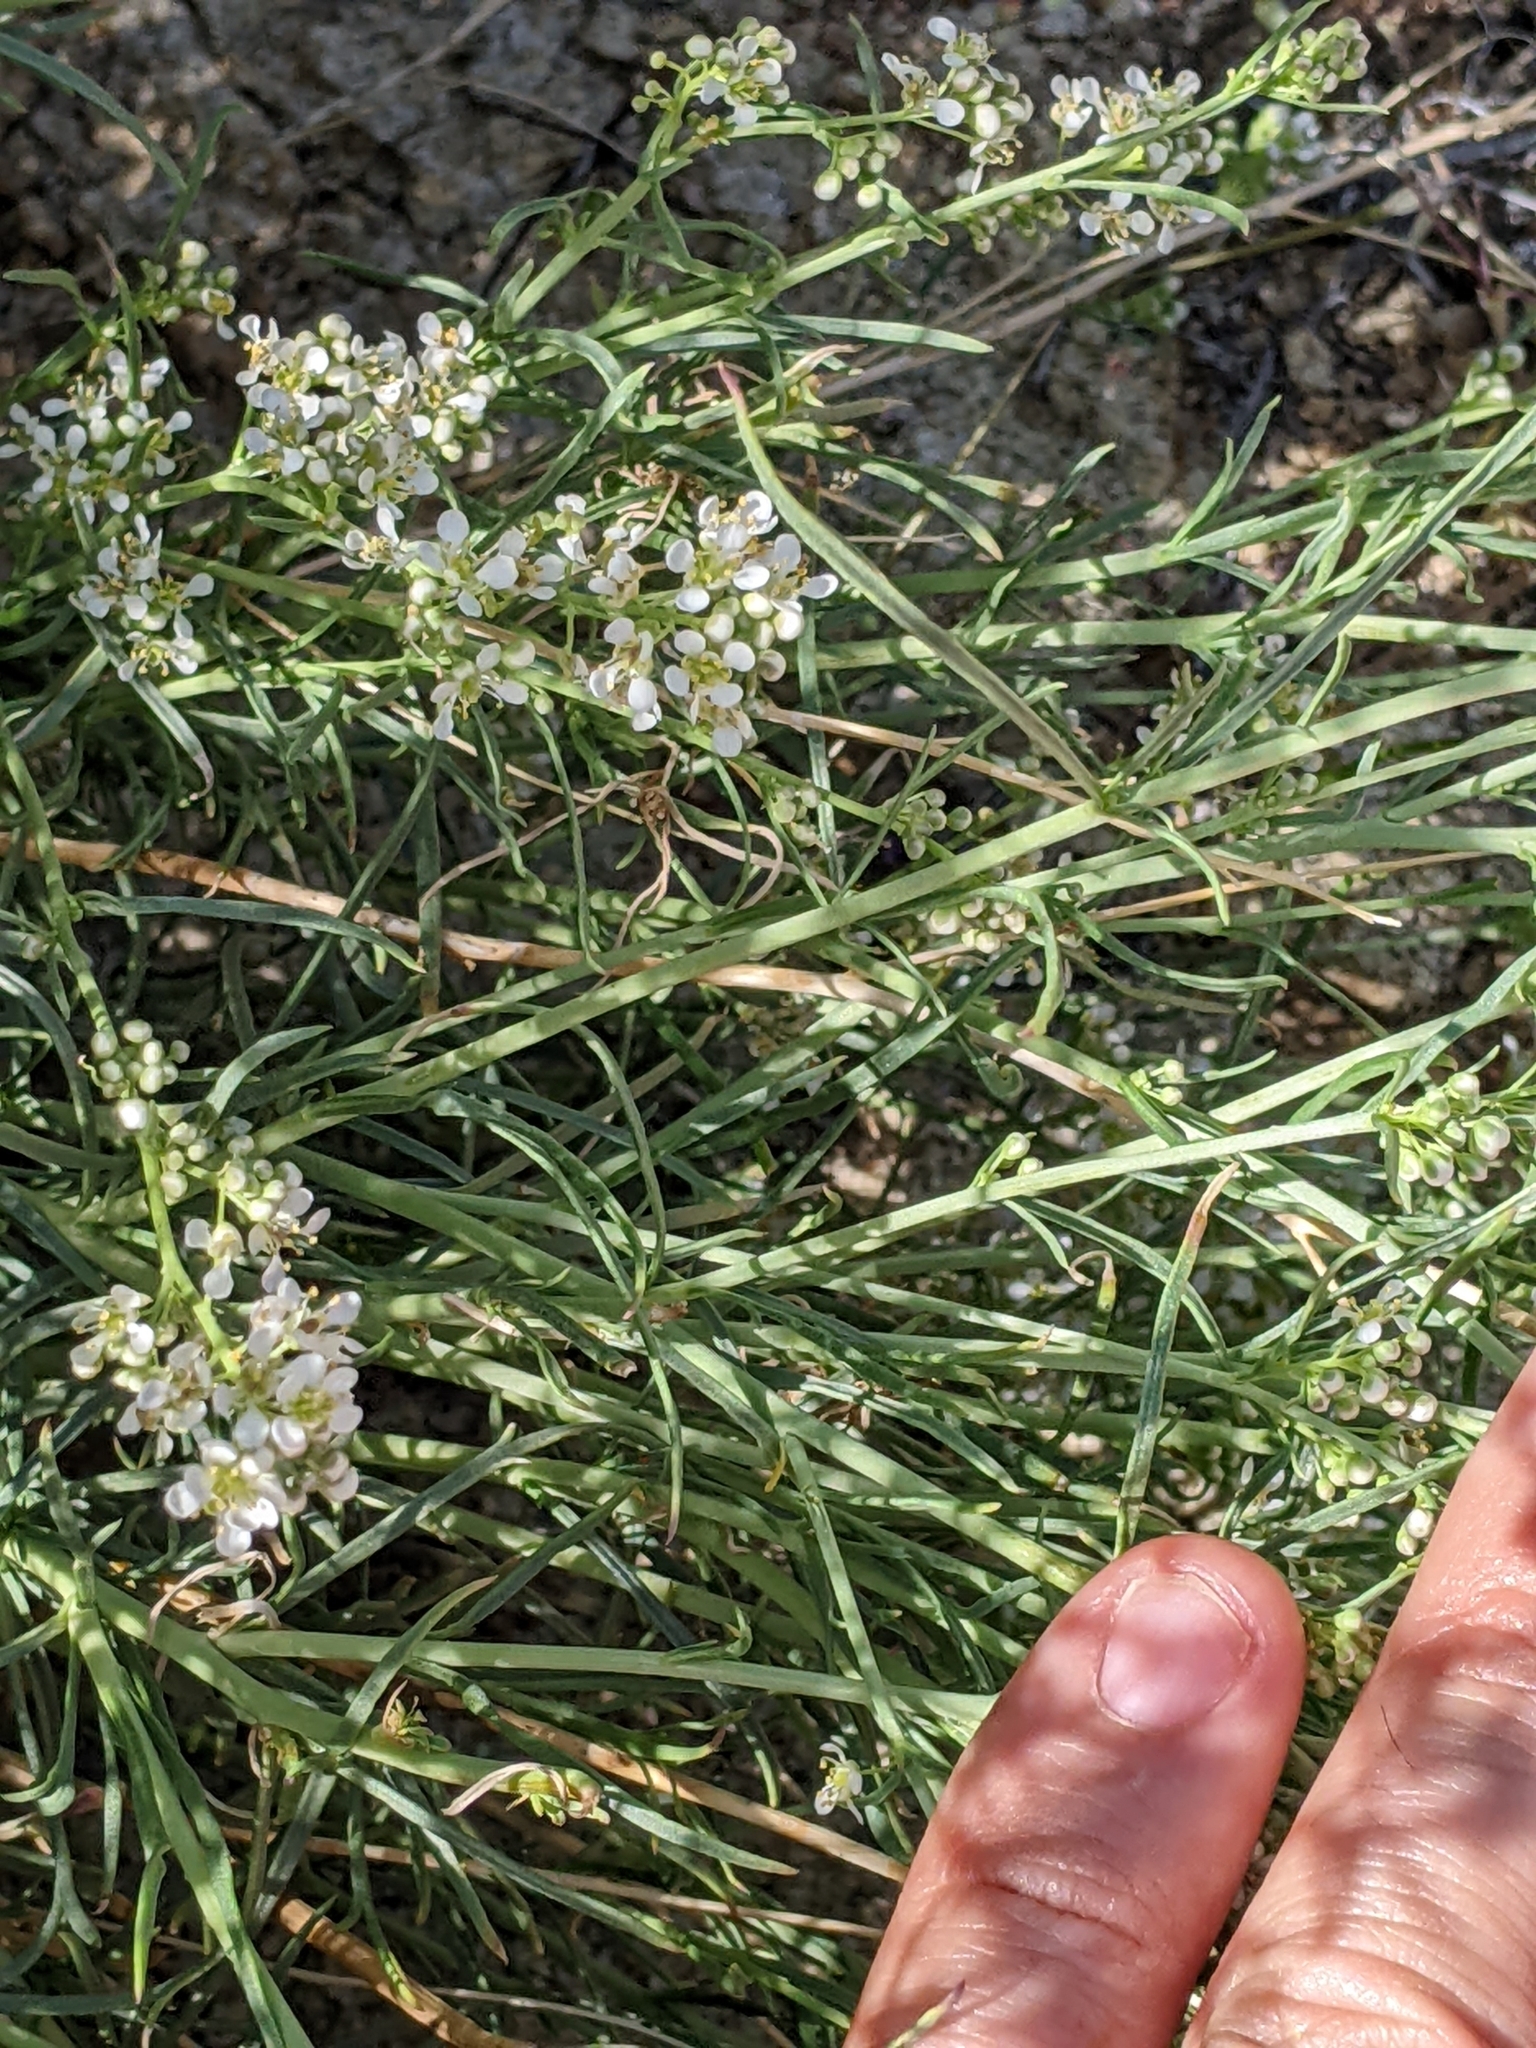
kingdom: Plantae
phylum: Tracheophyta
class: Magnoliopsida
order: Brassicales
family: Brassicaceae
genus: Lepidium
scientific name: Lepidium fremontii
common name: Fremont's pepperwort
